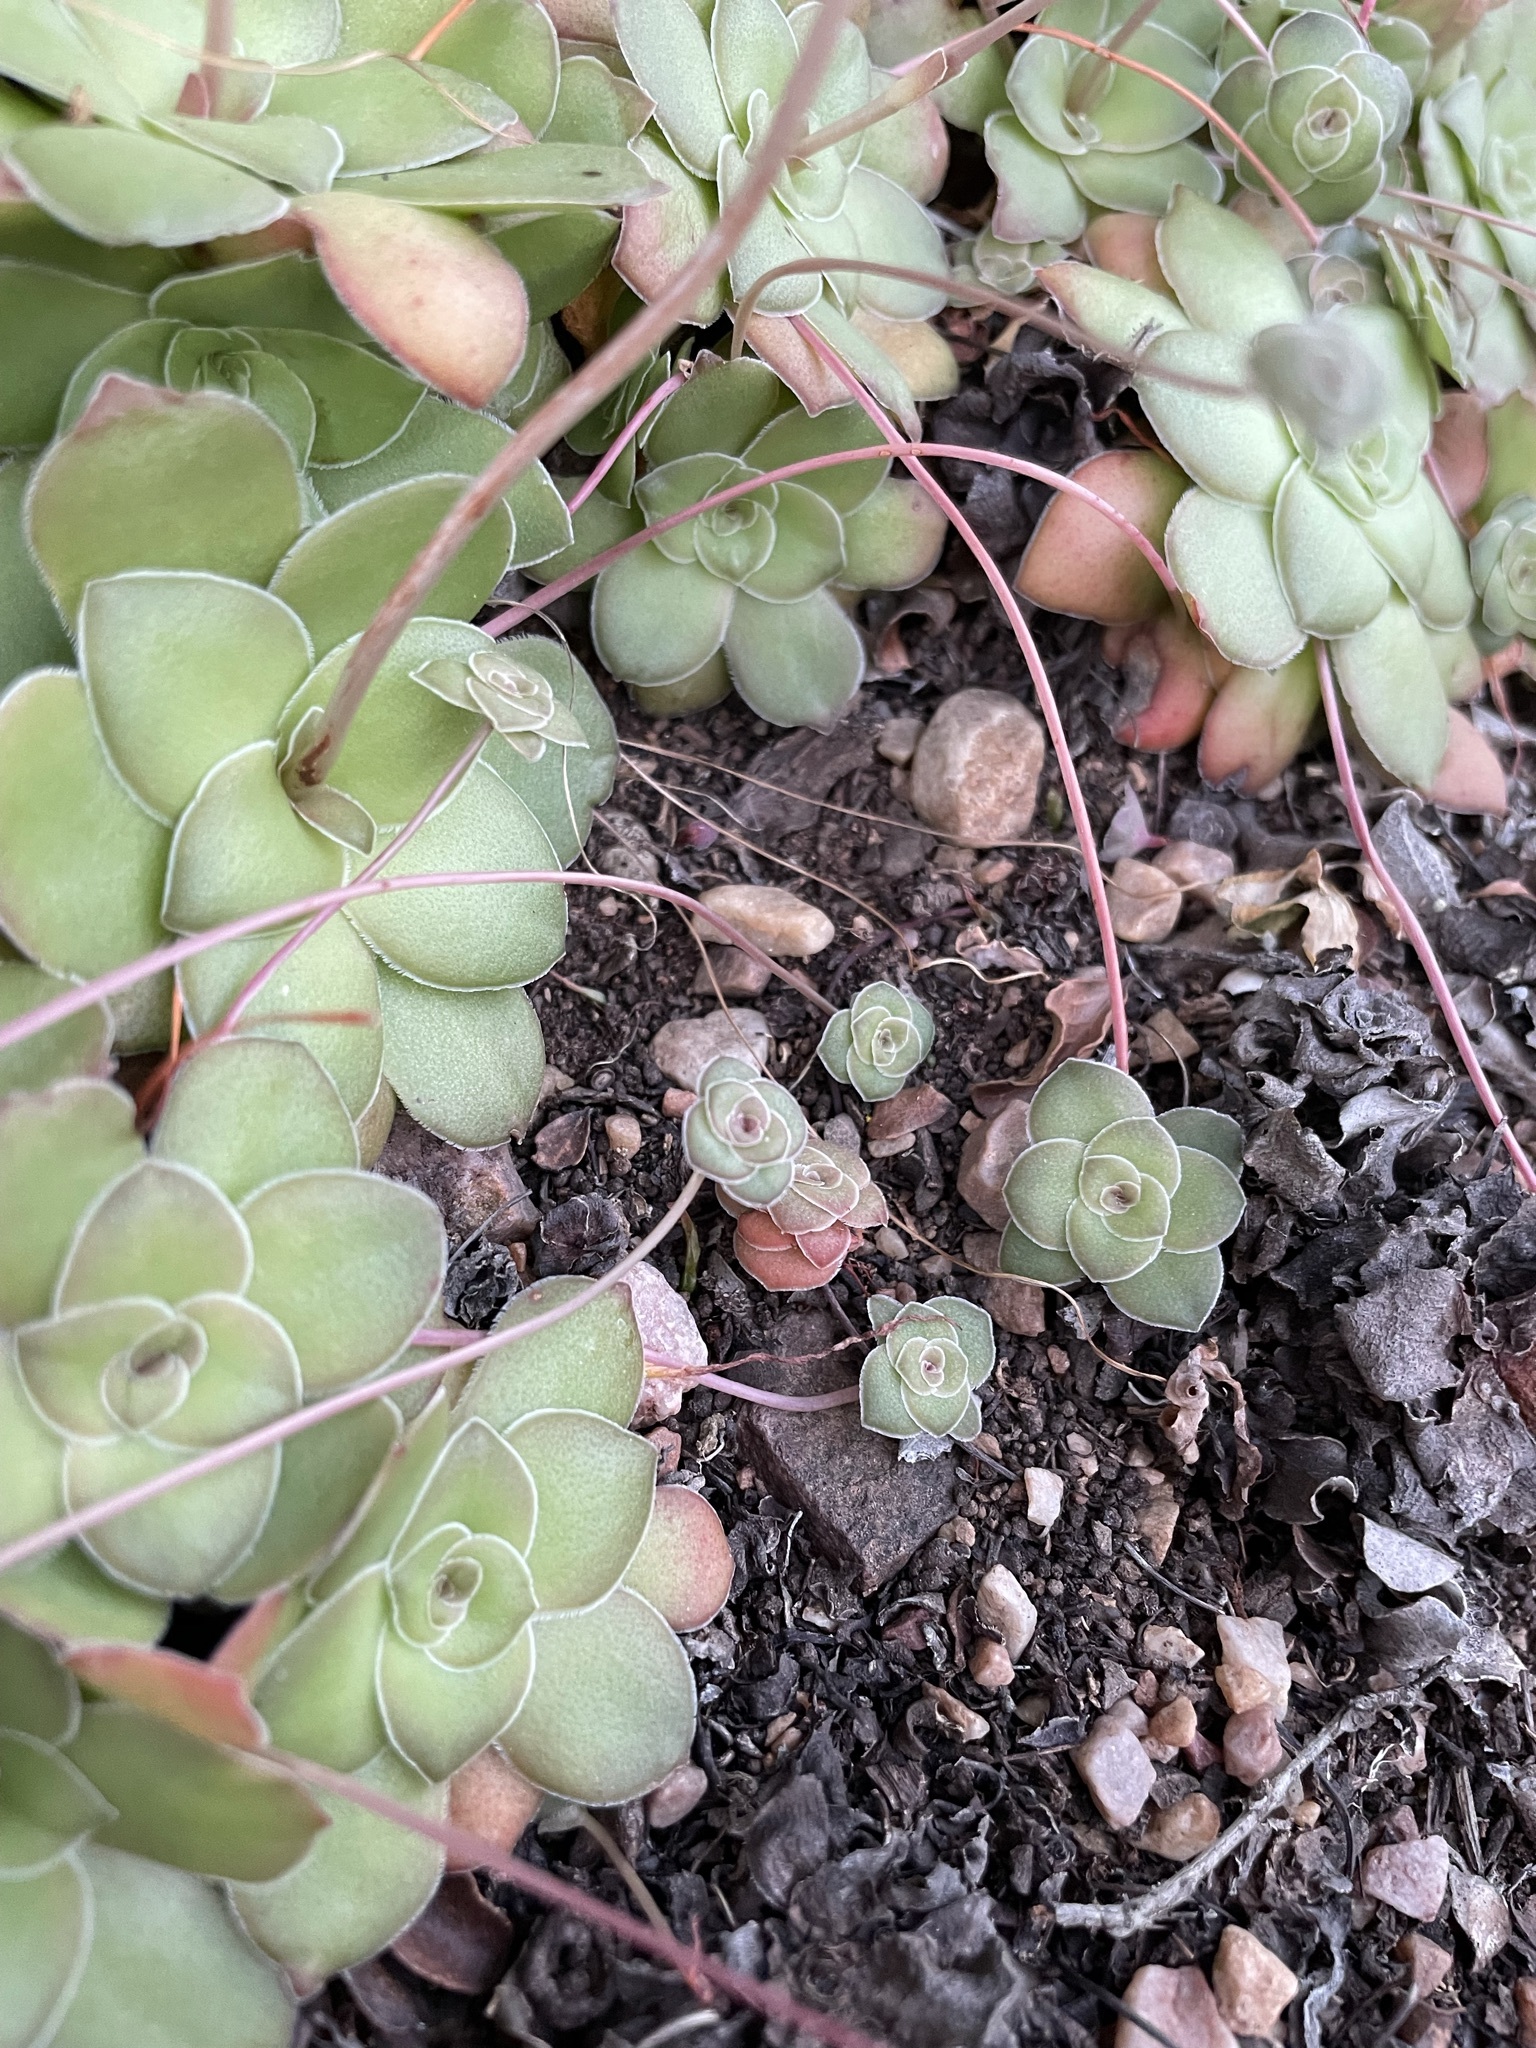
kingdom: Plantae
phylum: Tracheophyta
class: Magnoliopsida
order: Saxifragales
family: Crassulaceae
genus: Crassula
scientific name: Crassula orbicularis
